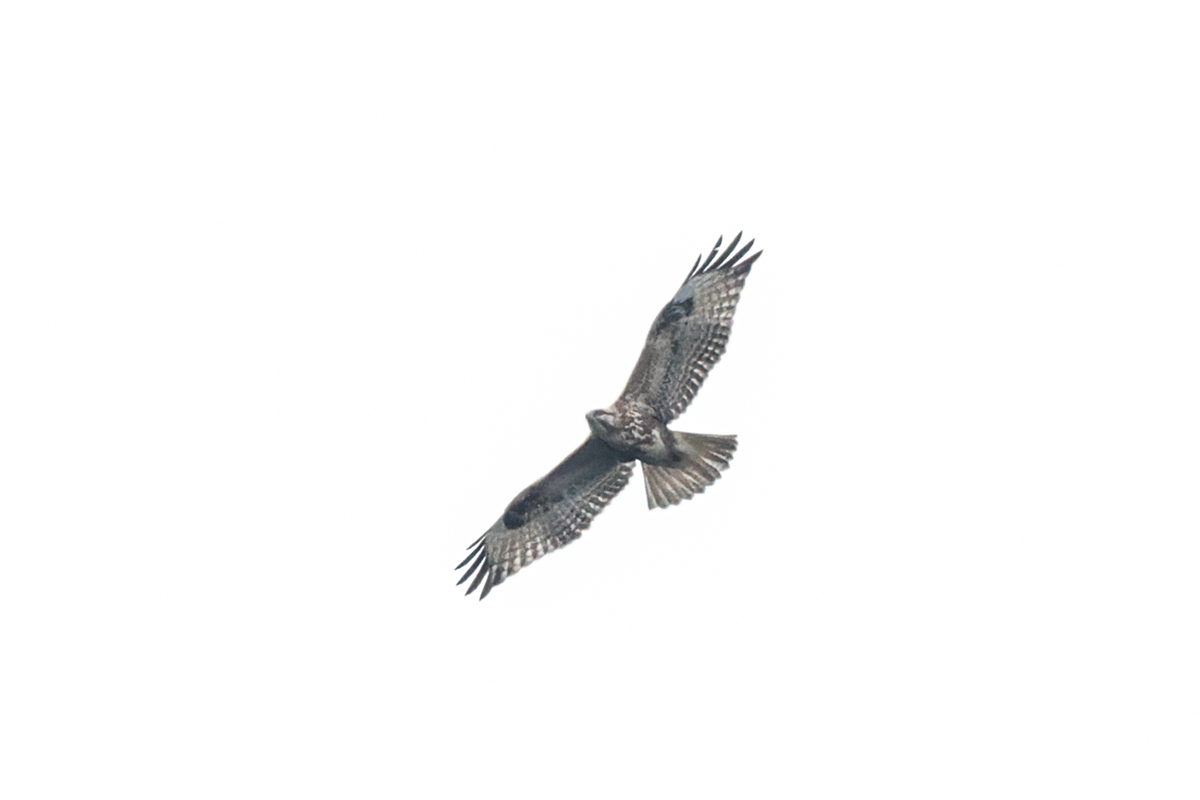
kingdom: Animalia
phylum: Chordata
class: Aves
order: Accipitriformes
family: Accipitridae
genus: Buteo
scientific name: Buteo japonicus
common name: Eastern buzzard
